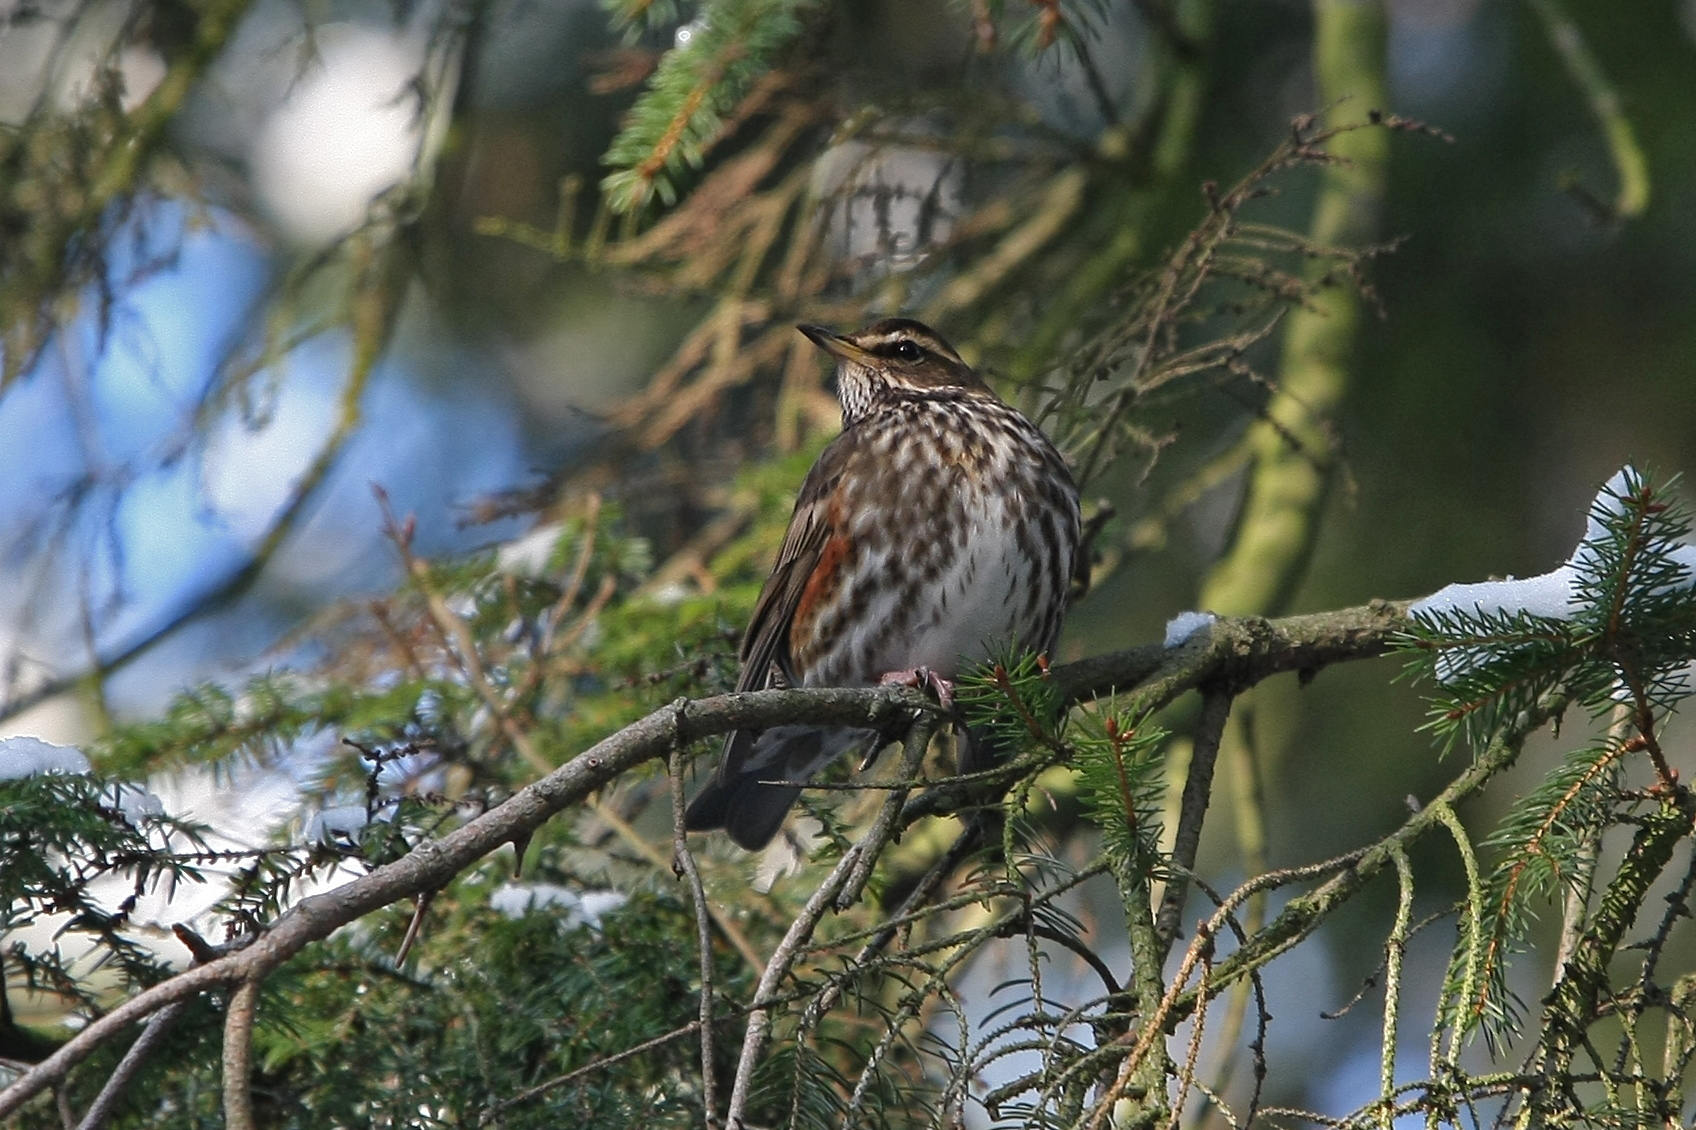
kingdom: Animalia
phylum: Chordata
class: Aves
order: Passeriformes
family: Turdidae
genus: Turdus
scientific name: Turdus iliacus
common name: Redwing
